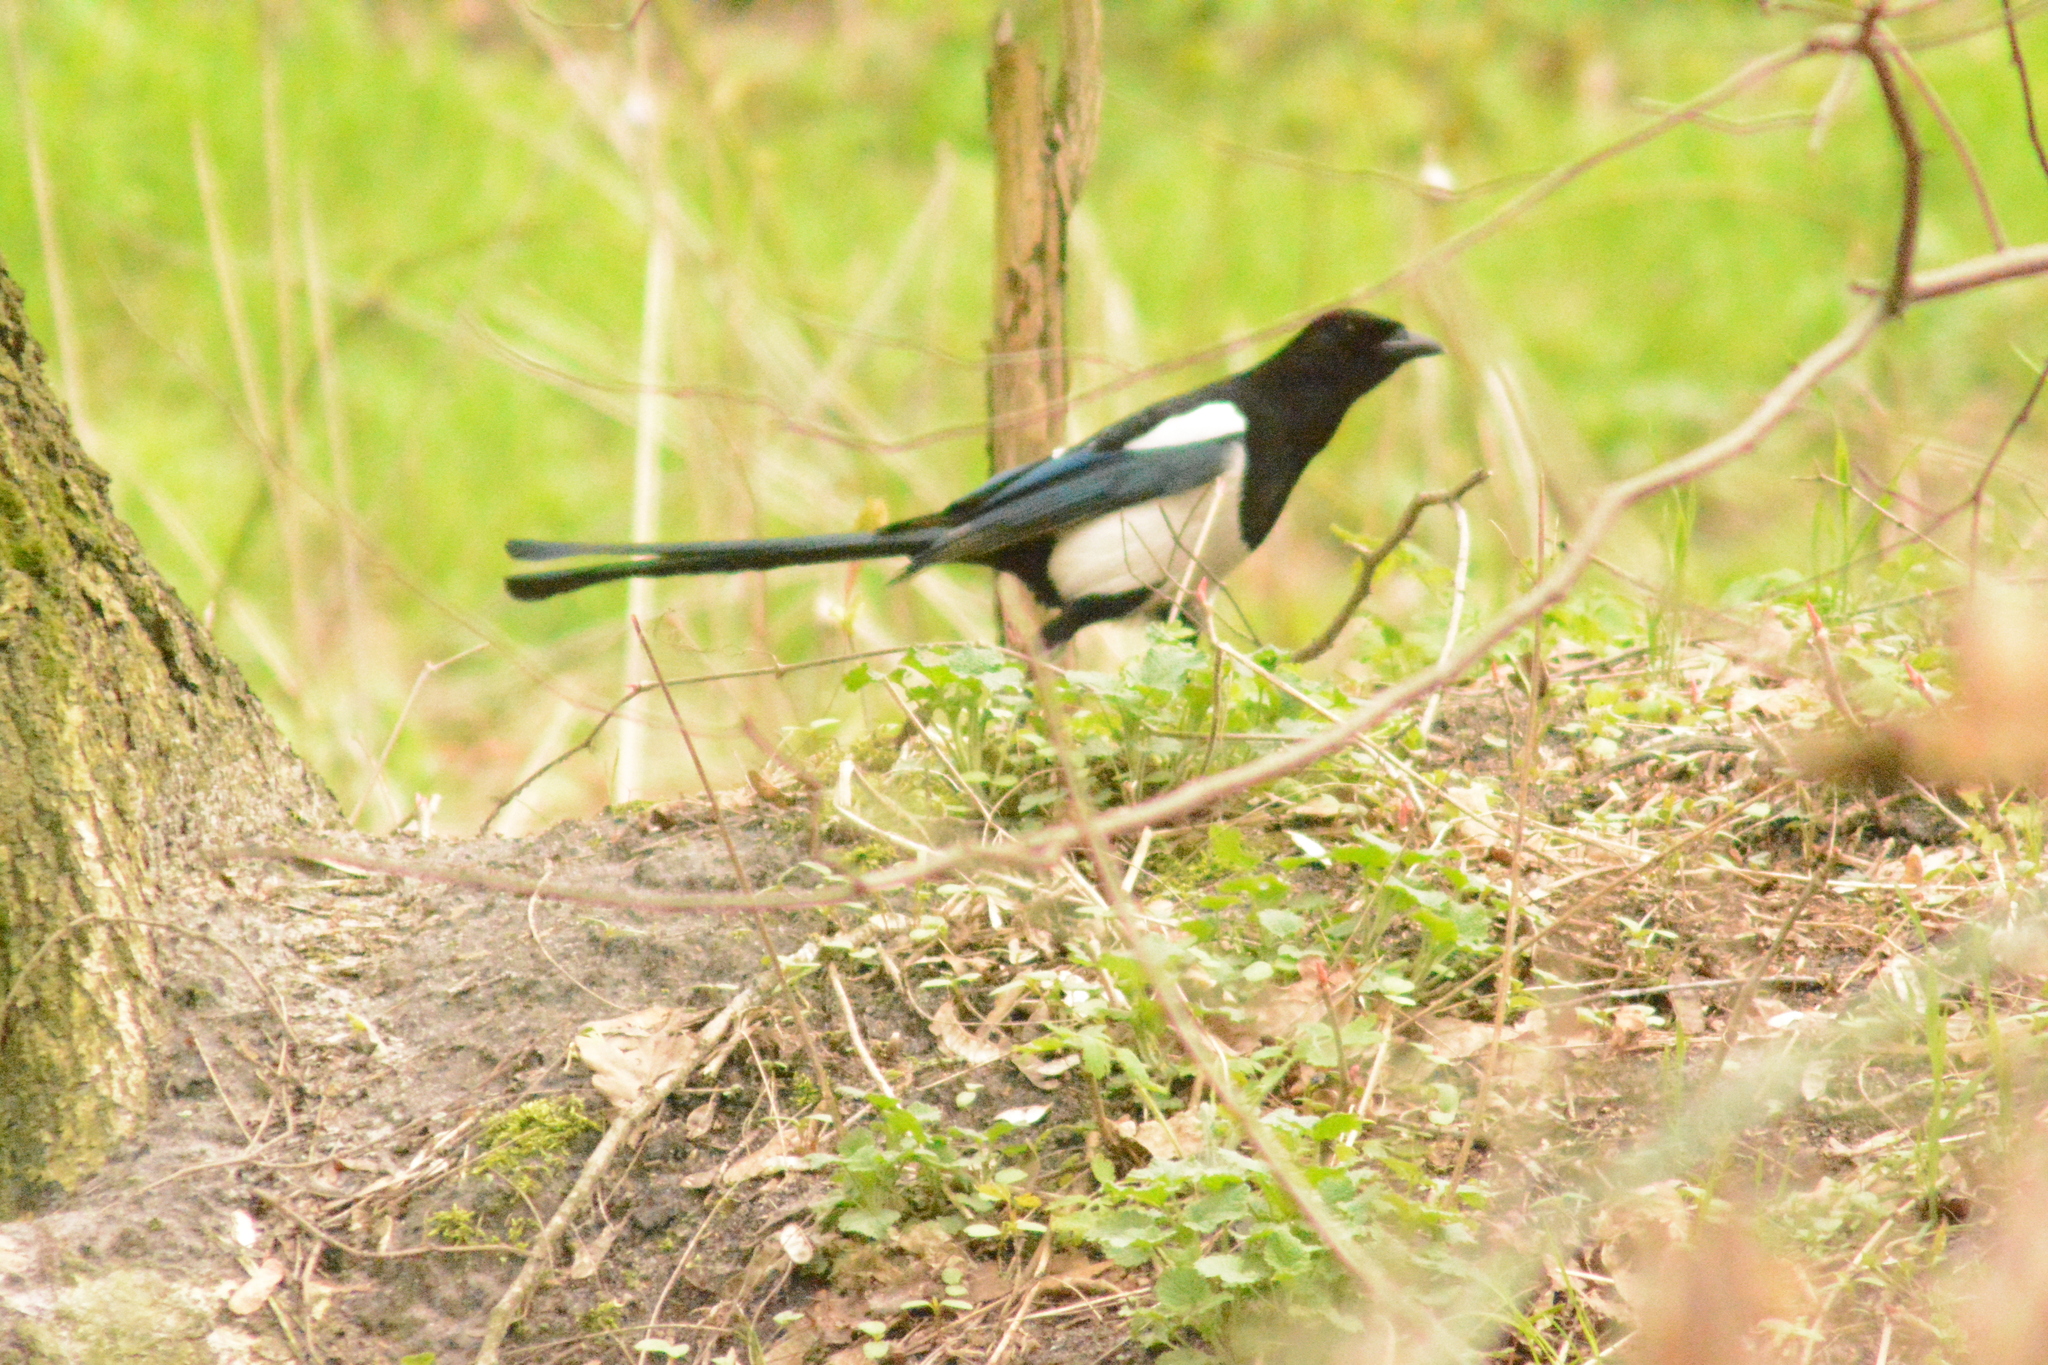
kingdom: Animalia
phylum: Chordata
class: Aves
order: Passeriformes
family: Corvidae
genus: Pica
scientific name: Pica pica
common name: Eurasian magpie
